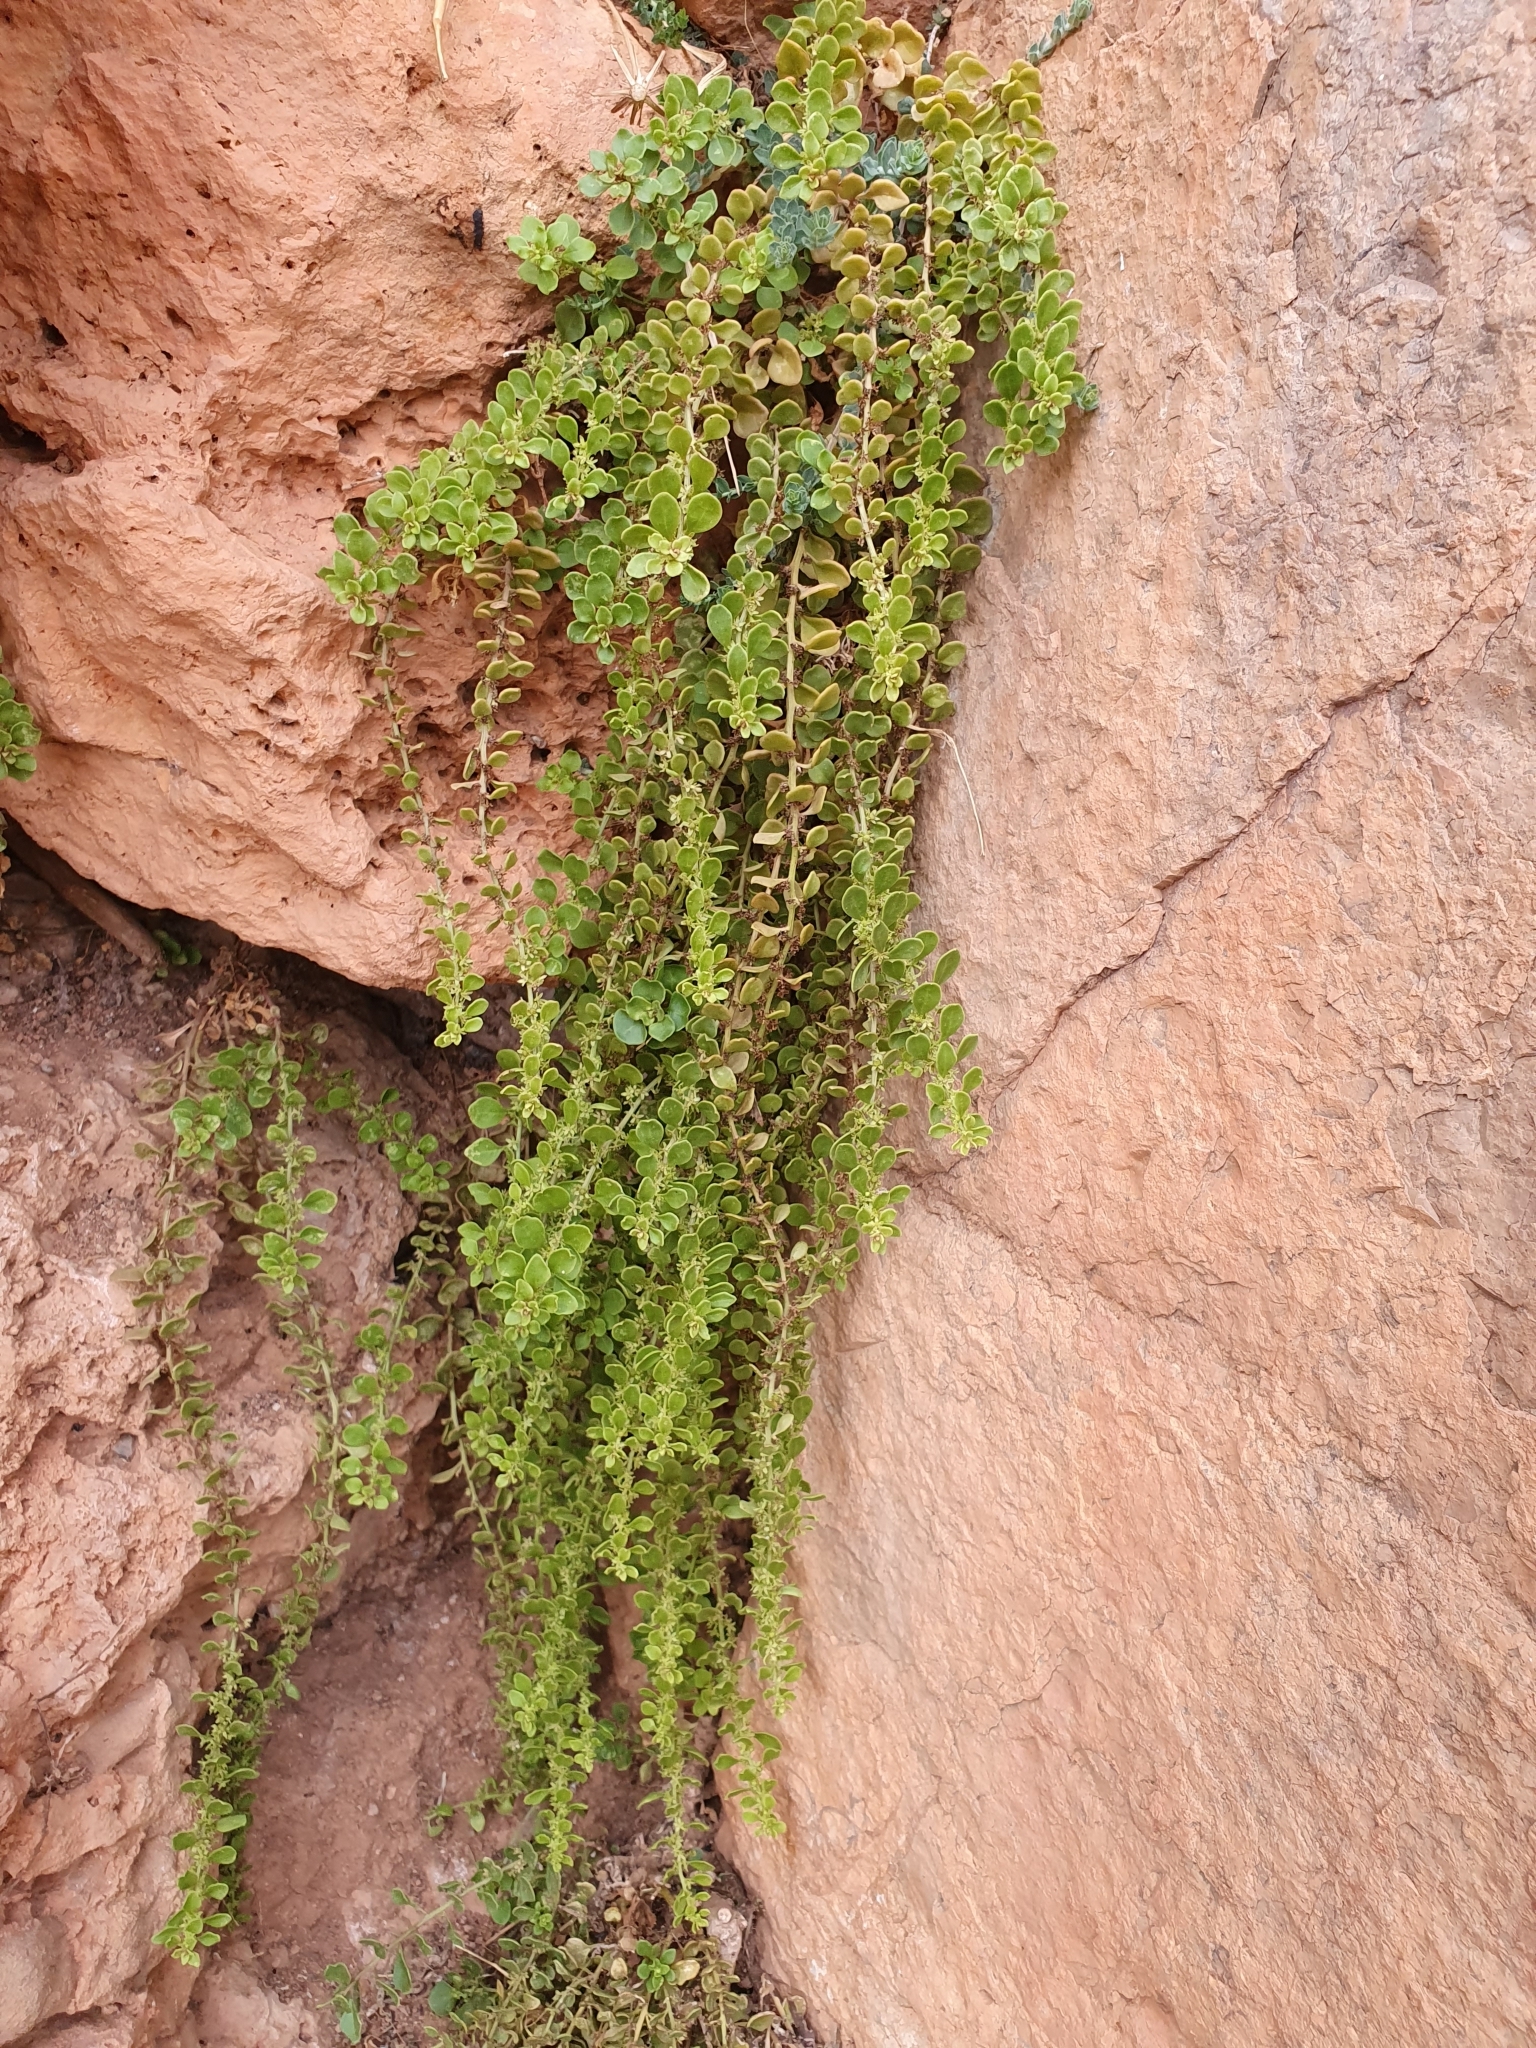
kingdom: Plantae
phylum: Tracheophyta
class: Magnoliopsida
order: Caryophyllales
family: Amaranthaceae
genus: Oreobliton
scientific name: Oreobliton thesioides
